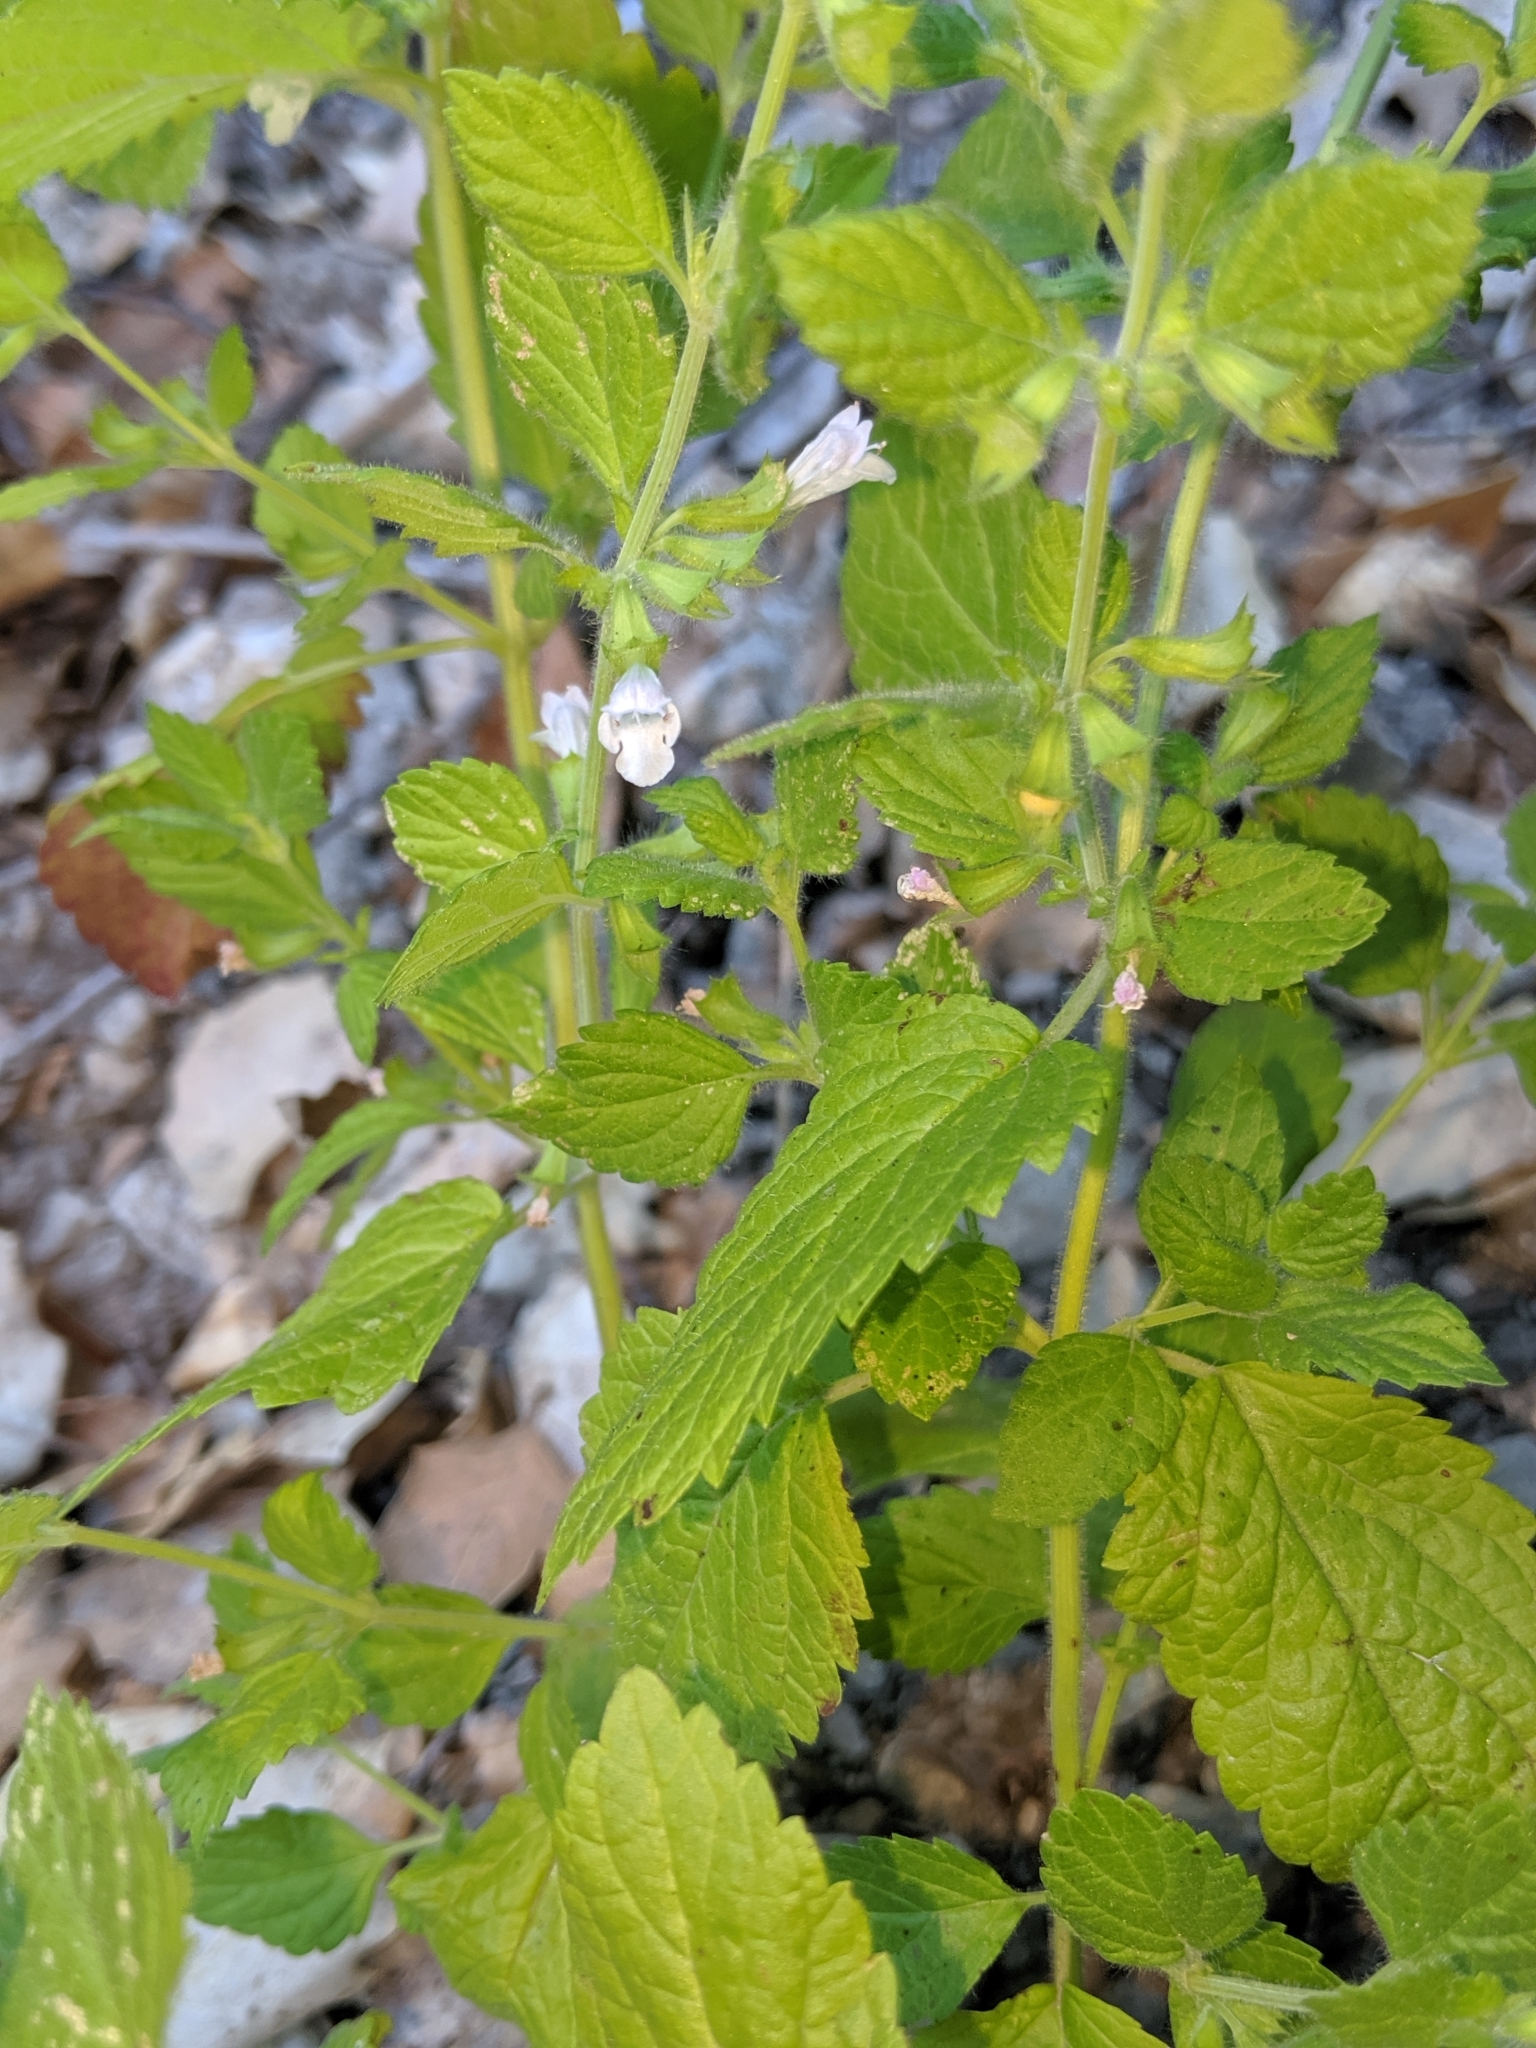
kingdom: Plantae
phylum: Tracheophyta
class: Magnoliopsida
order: Lamiales
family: Lamiaceae
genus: Melissa
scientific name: Melissa officinalis
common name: Balm
